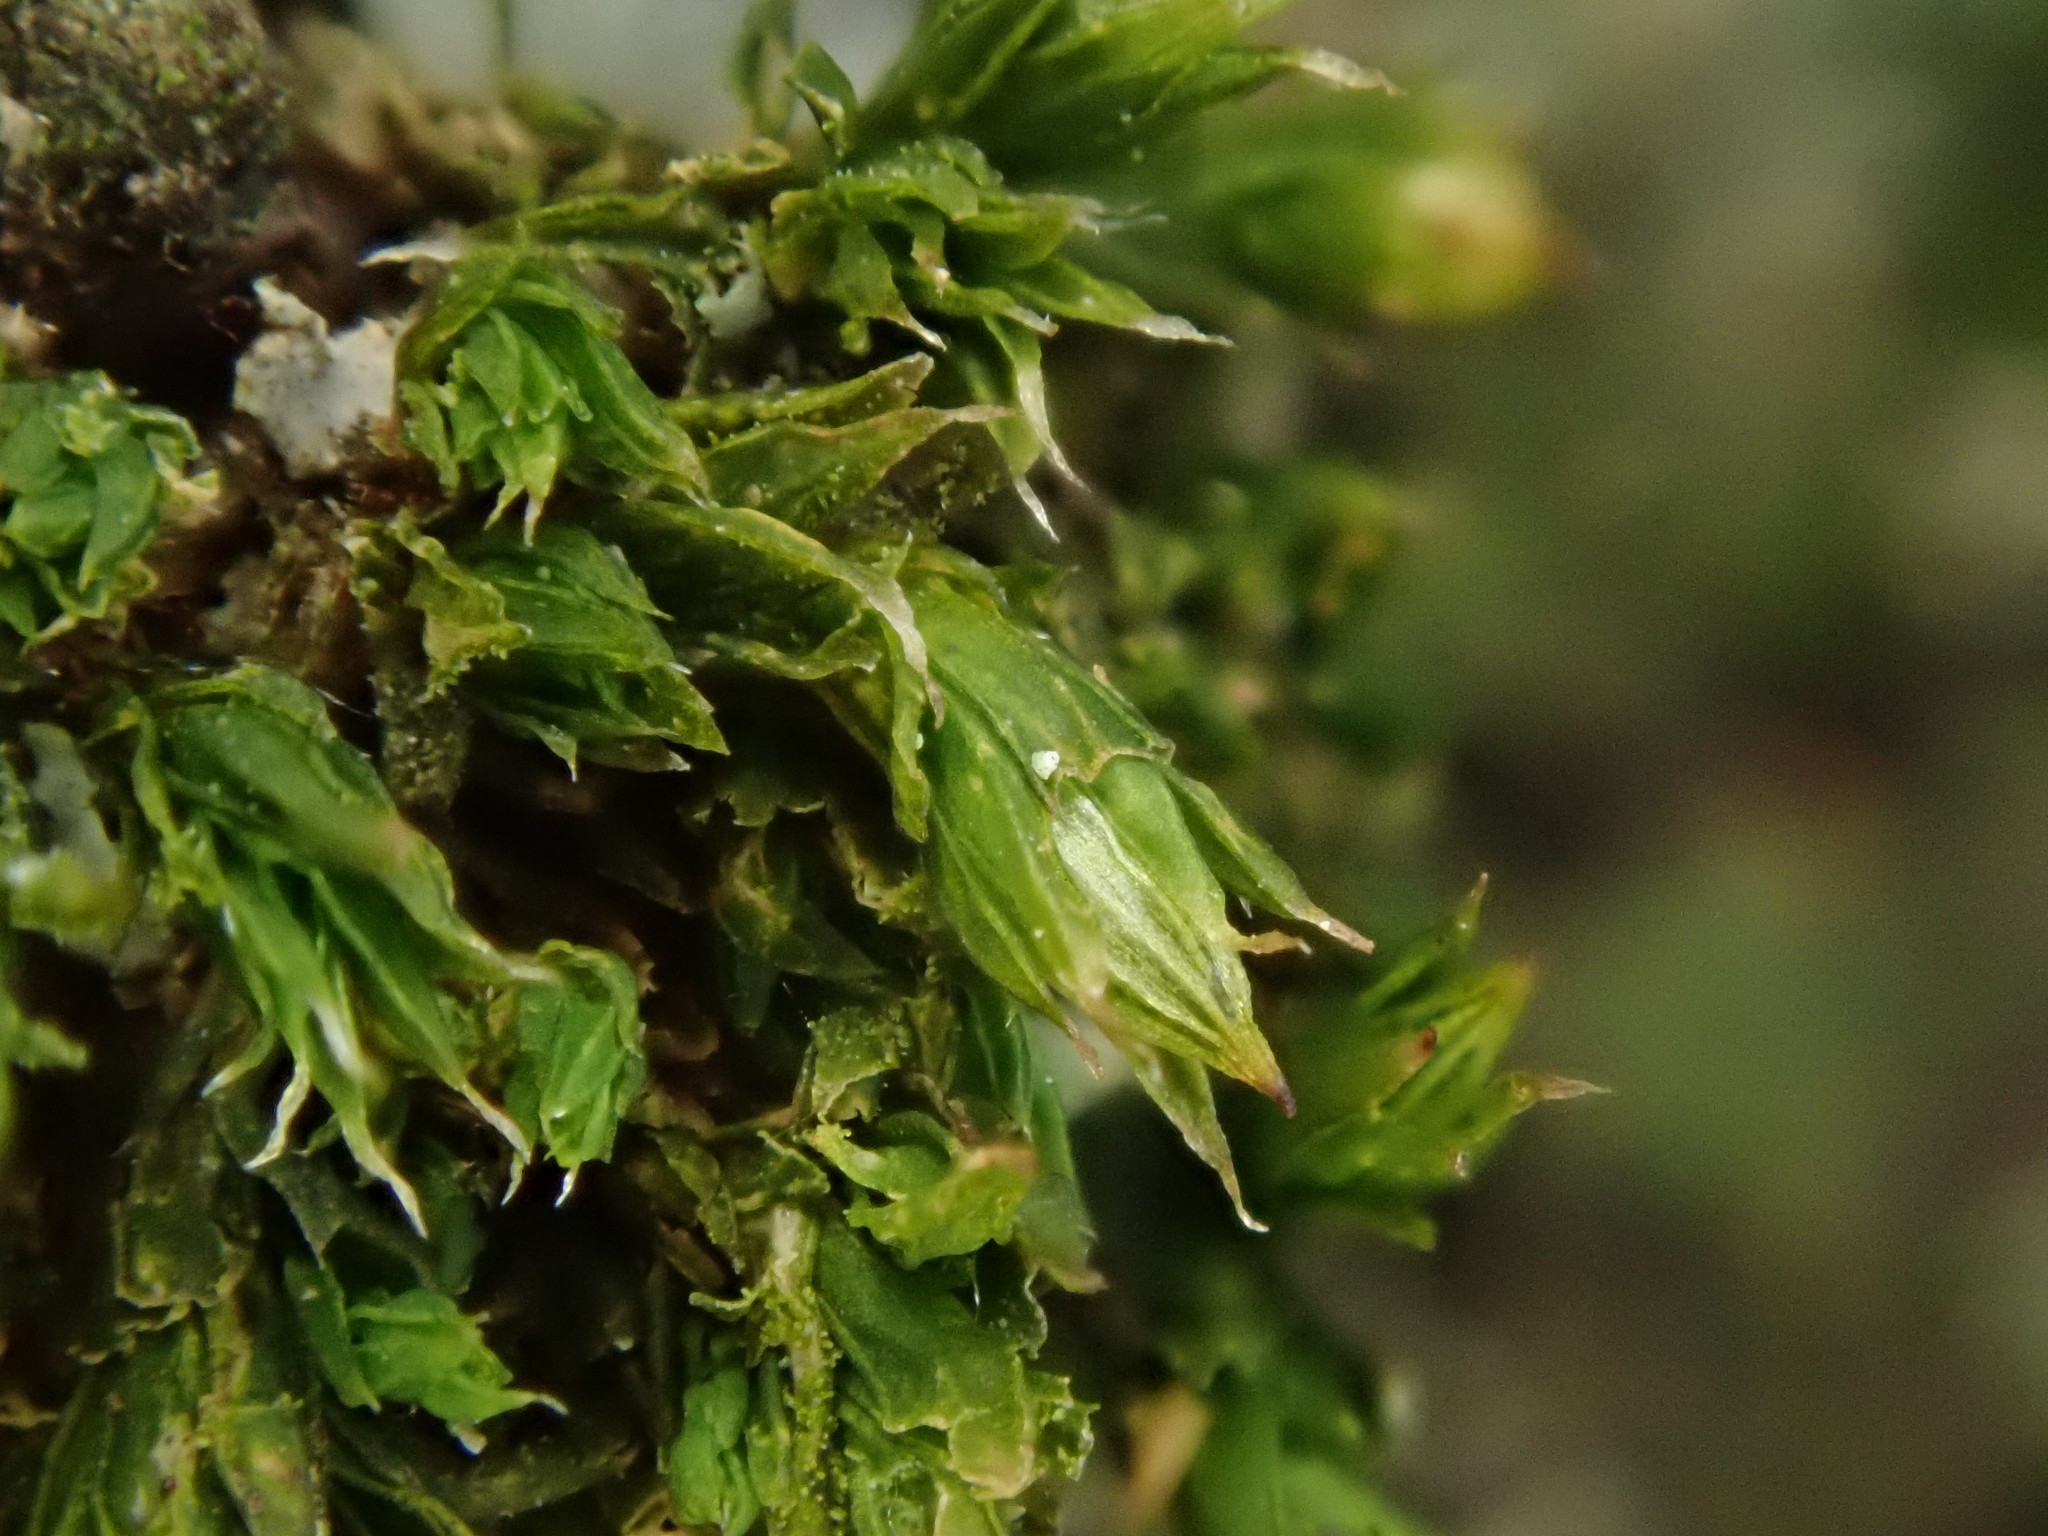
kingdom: Plantae
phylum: Bryophyta
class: Bryopsida
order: Orthotrichales
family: Orthotrichaceae
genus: Orthotrichum
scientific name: Orthotrichum diaphanum
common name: White-tipped bristle-moss
